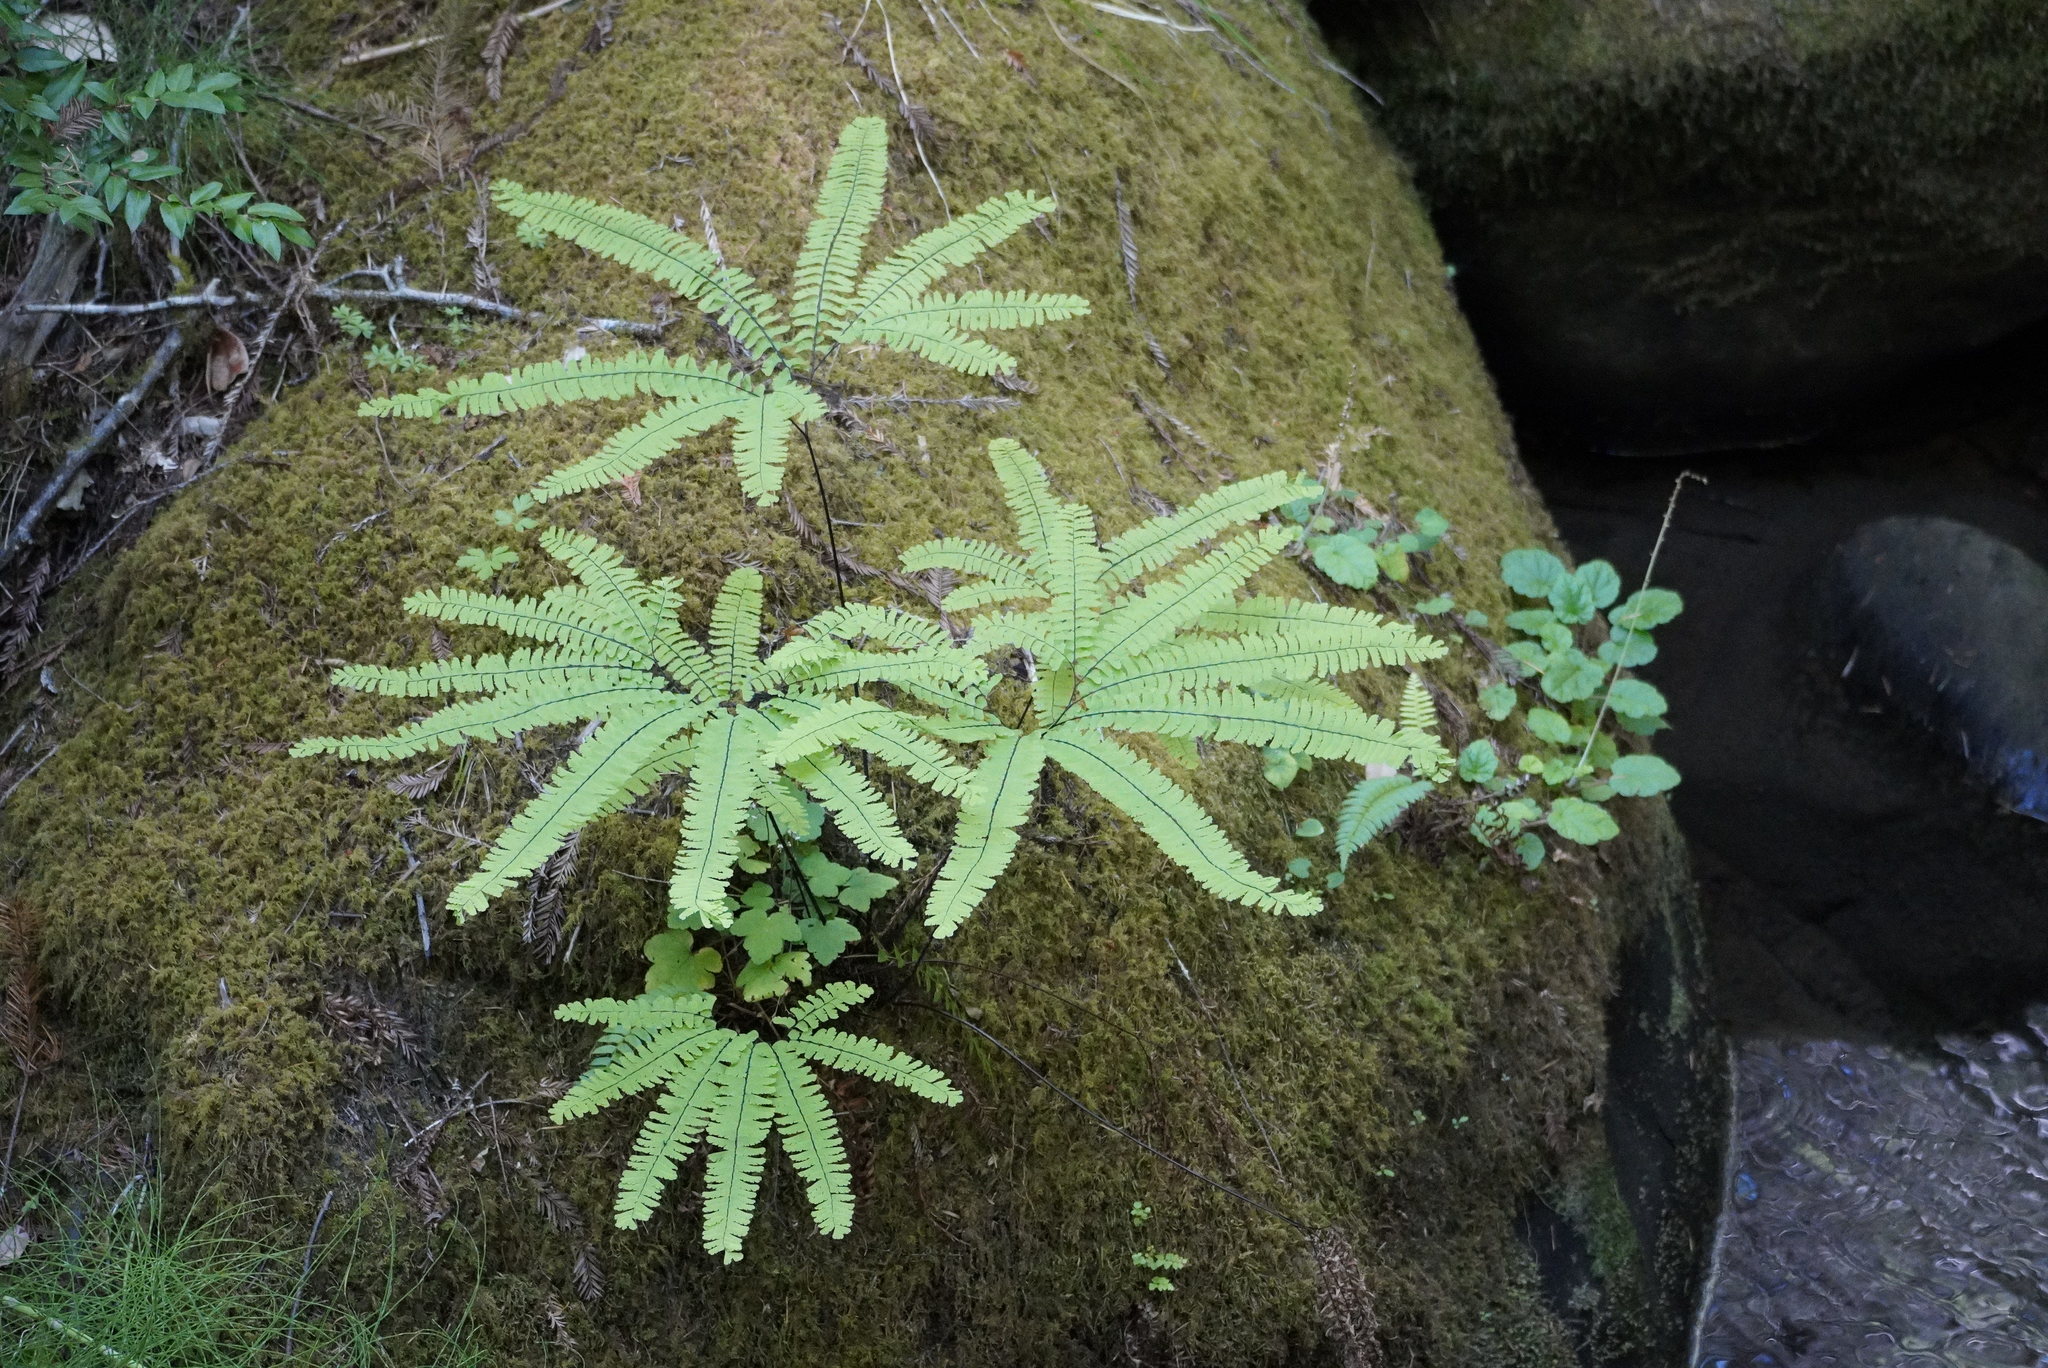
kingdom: Plantae
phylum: Tracheophyta
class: Polypodiopsida
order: Polypodiales
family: Pteridaceae
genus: Adiantum
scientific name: Adiantum aleuticum
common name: Aleutian maidenhair fern
